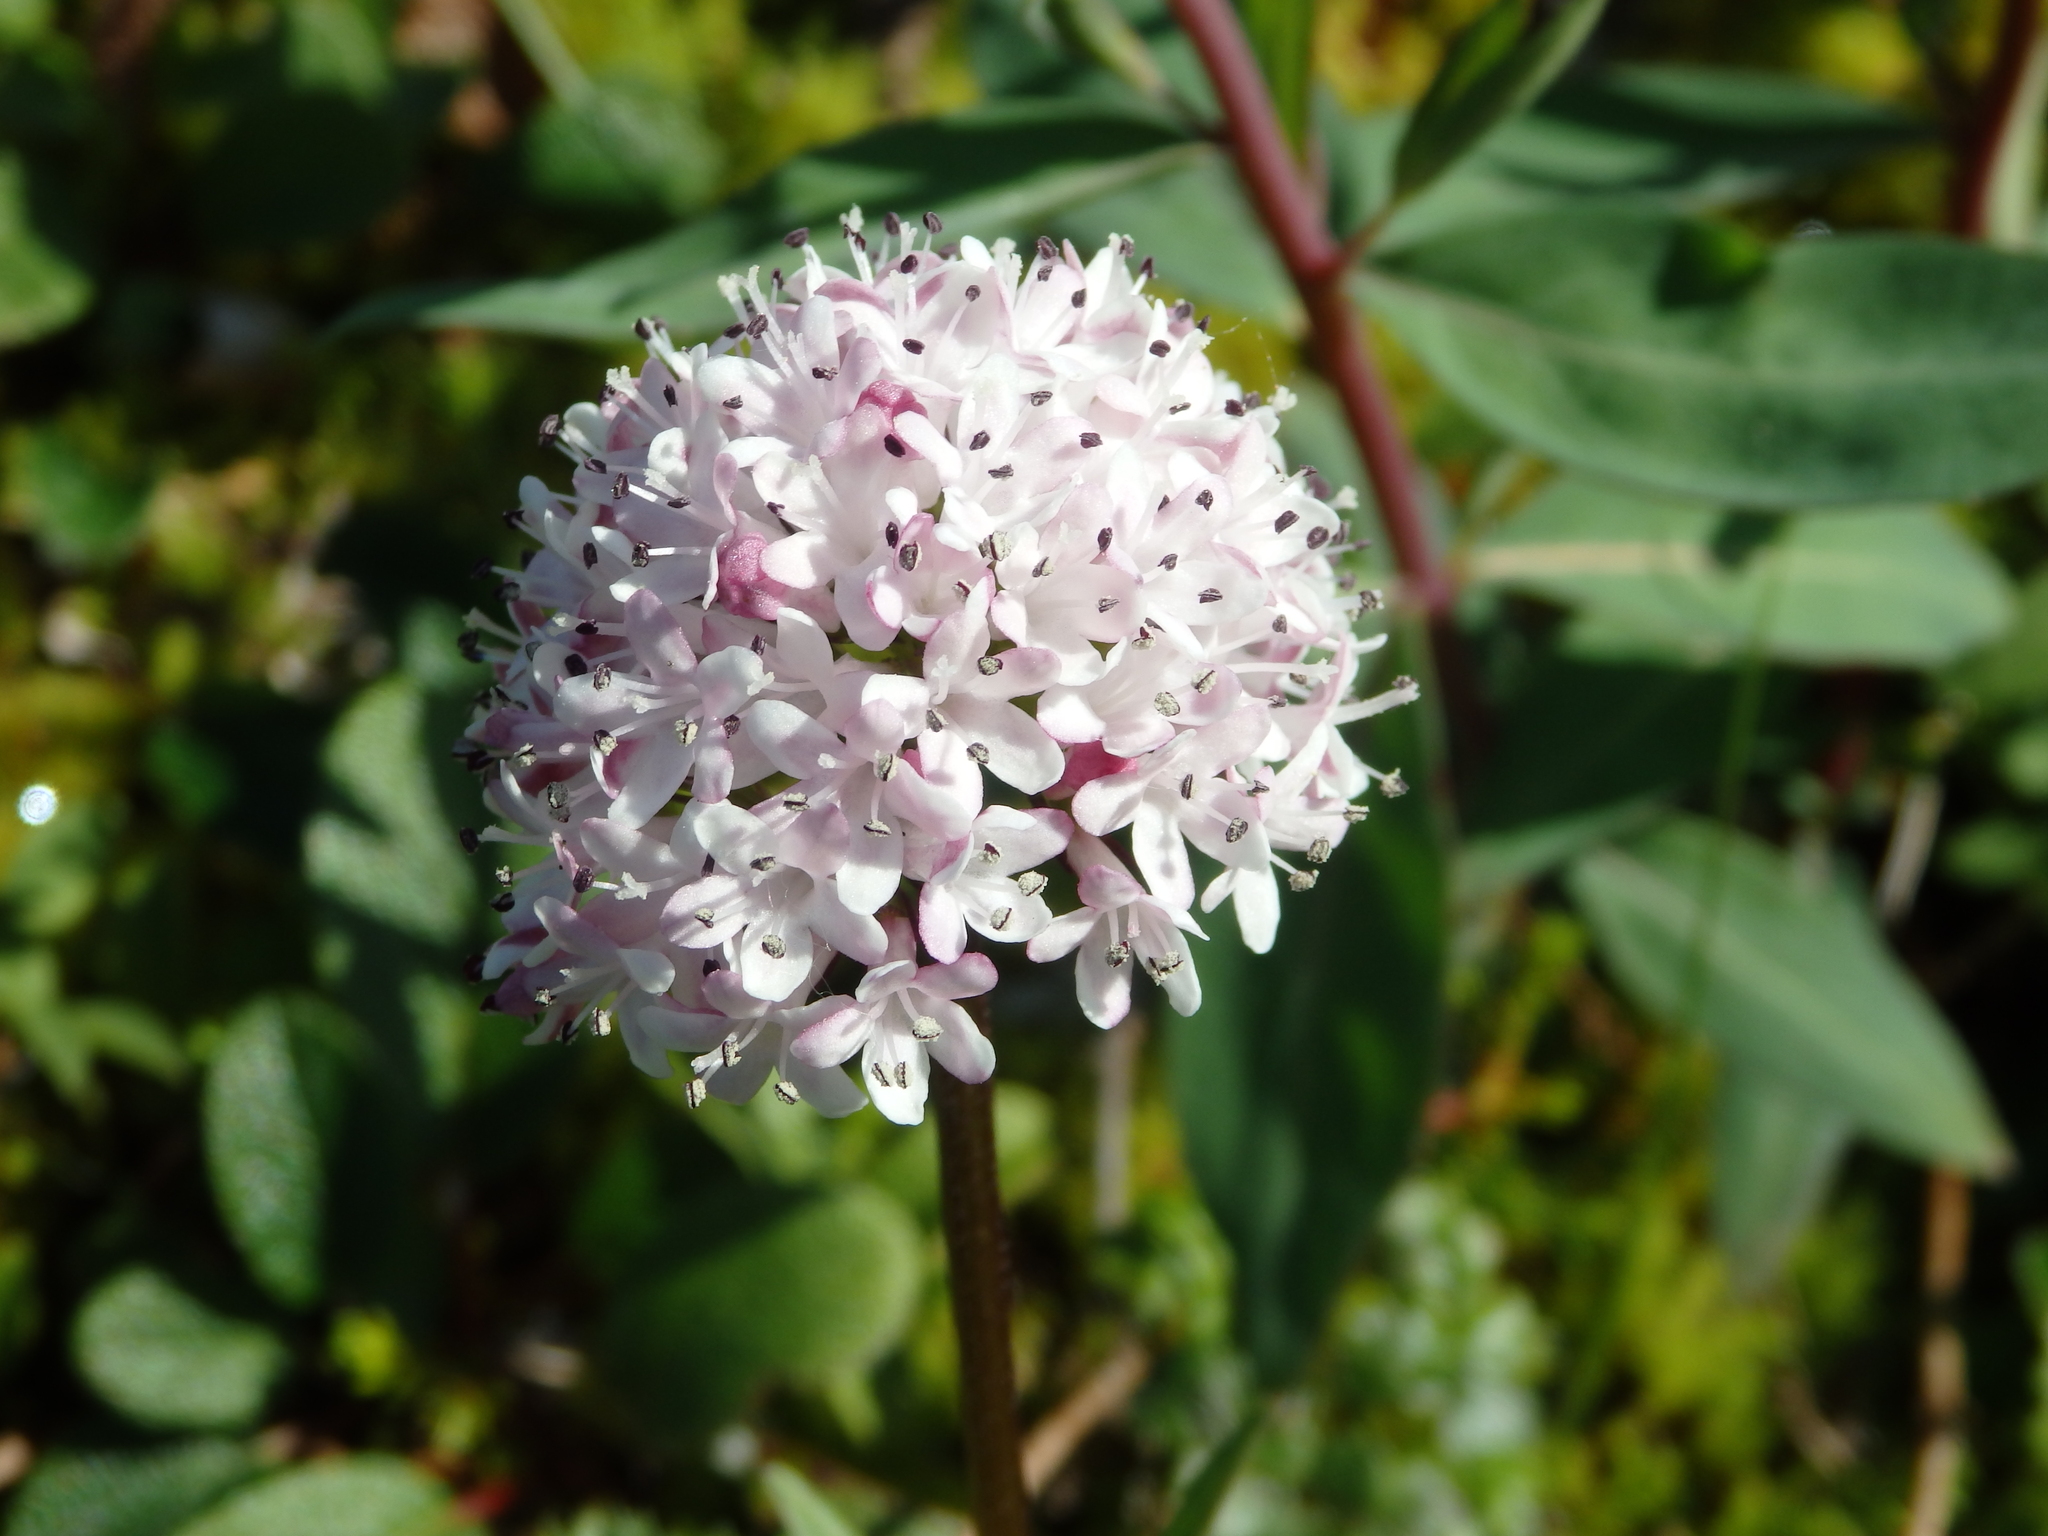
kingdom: Plantae
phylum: Tracheophyta
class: Magnoliopsida
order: Dipsacales
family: Caprifoliaceae
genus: Valeriana
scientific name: Valeriana capitata
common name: Capitate valerian
